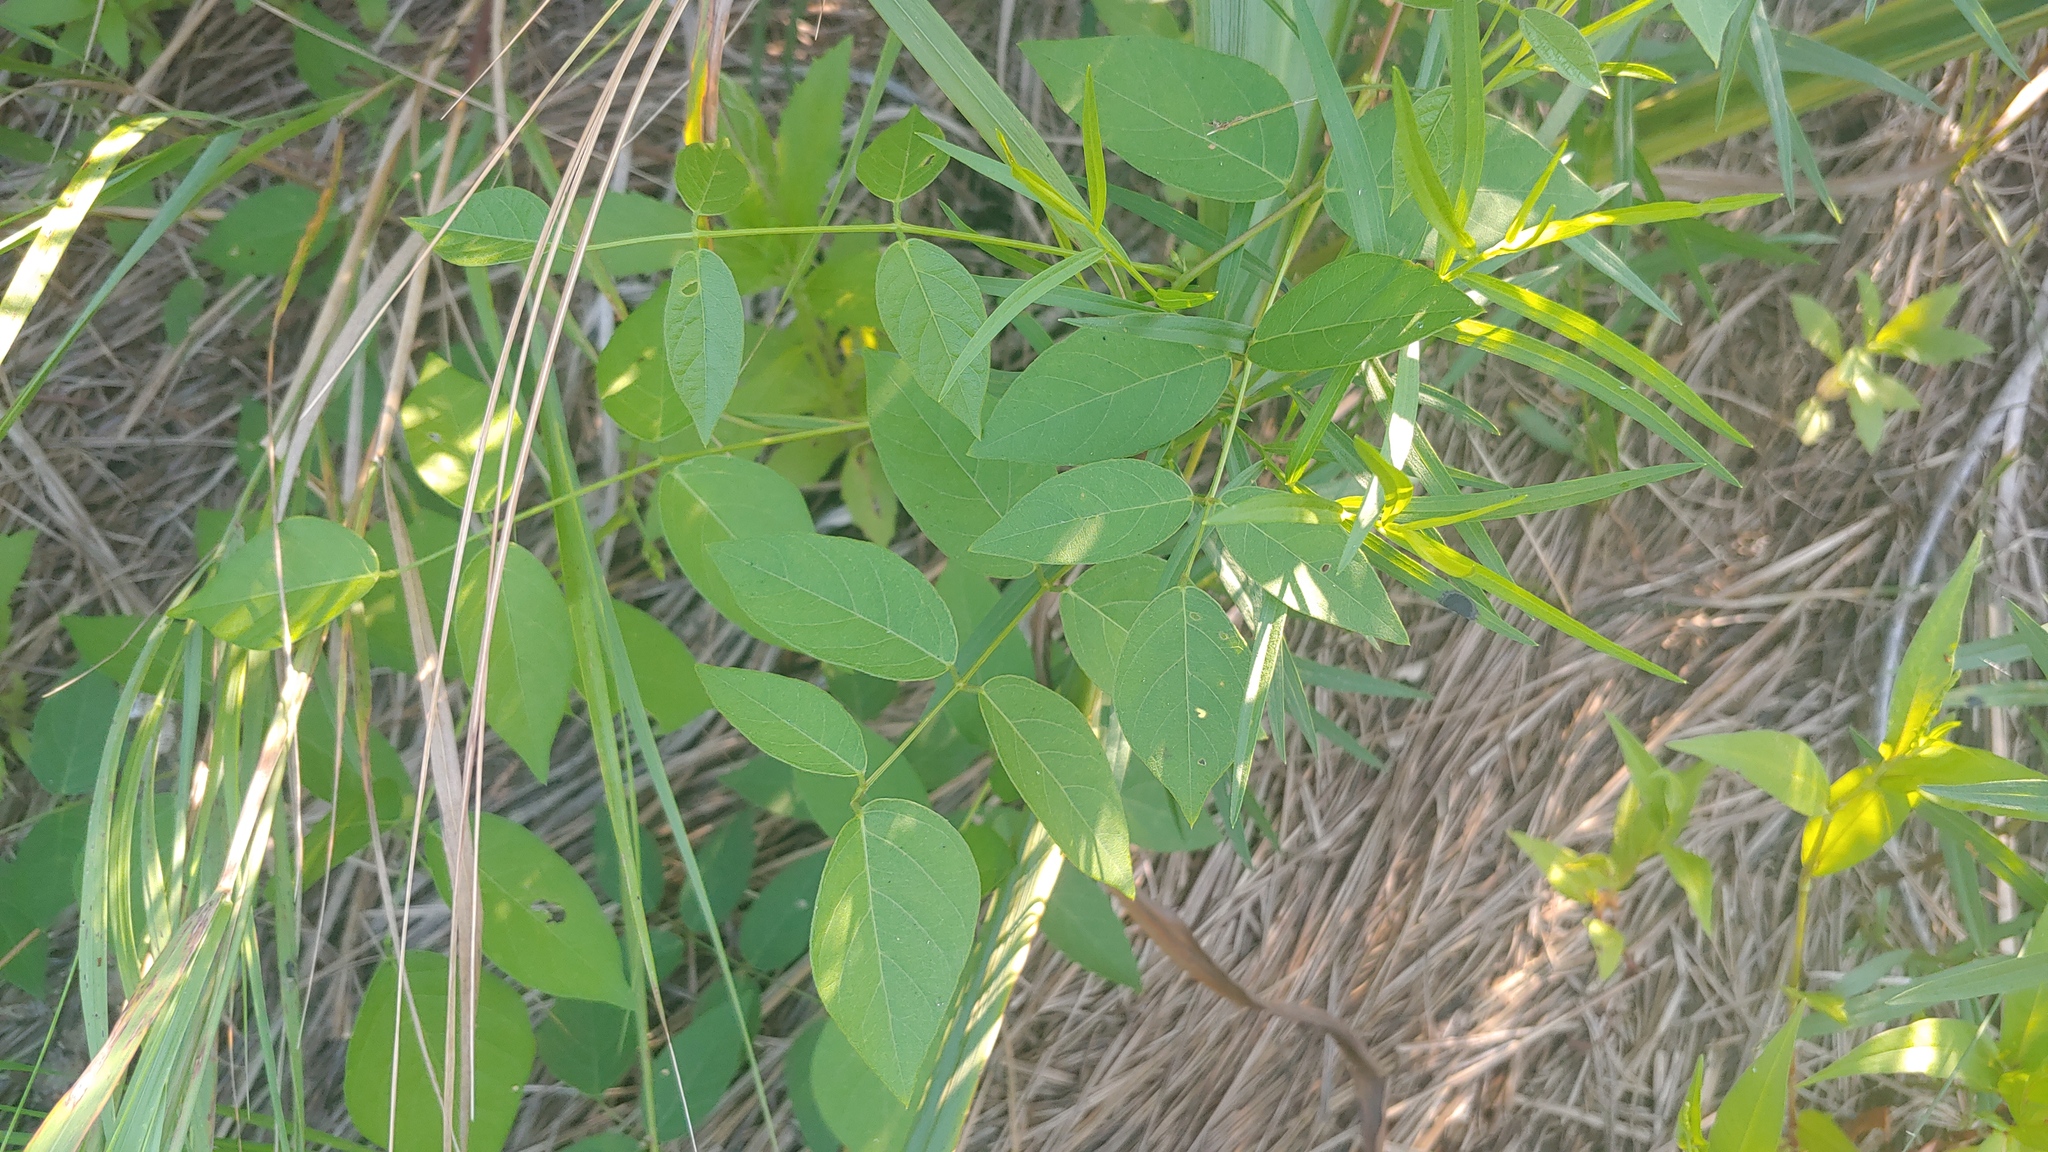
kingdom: Plantae
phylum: Tracheophyta
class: Magnoliopsida
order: Fabales
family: Fabaceae
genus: Apios
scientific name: Apios americana
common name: American potato-bean
